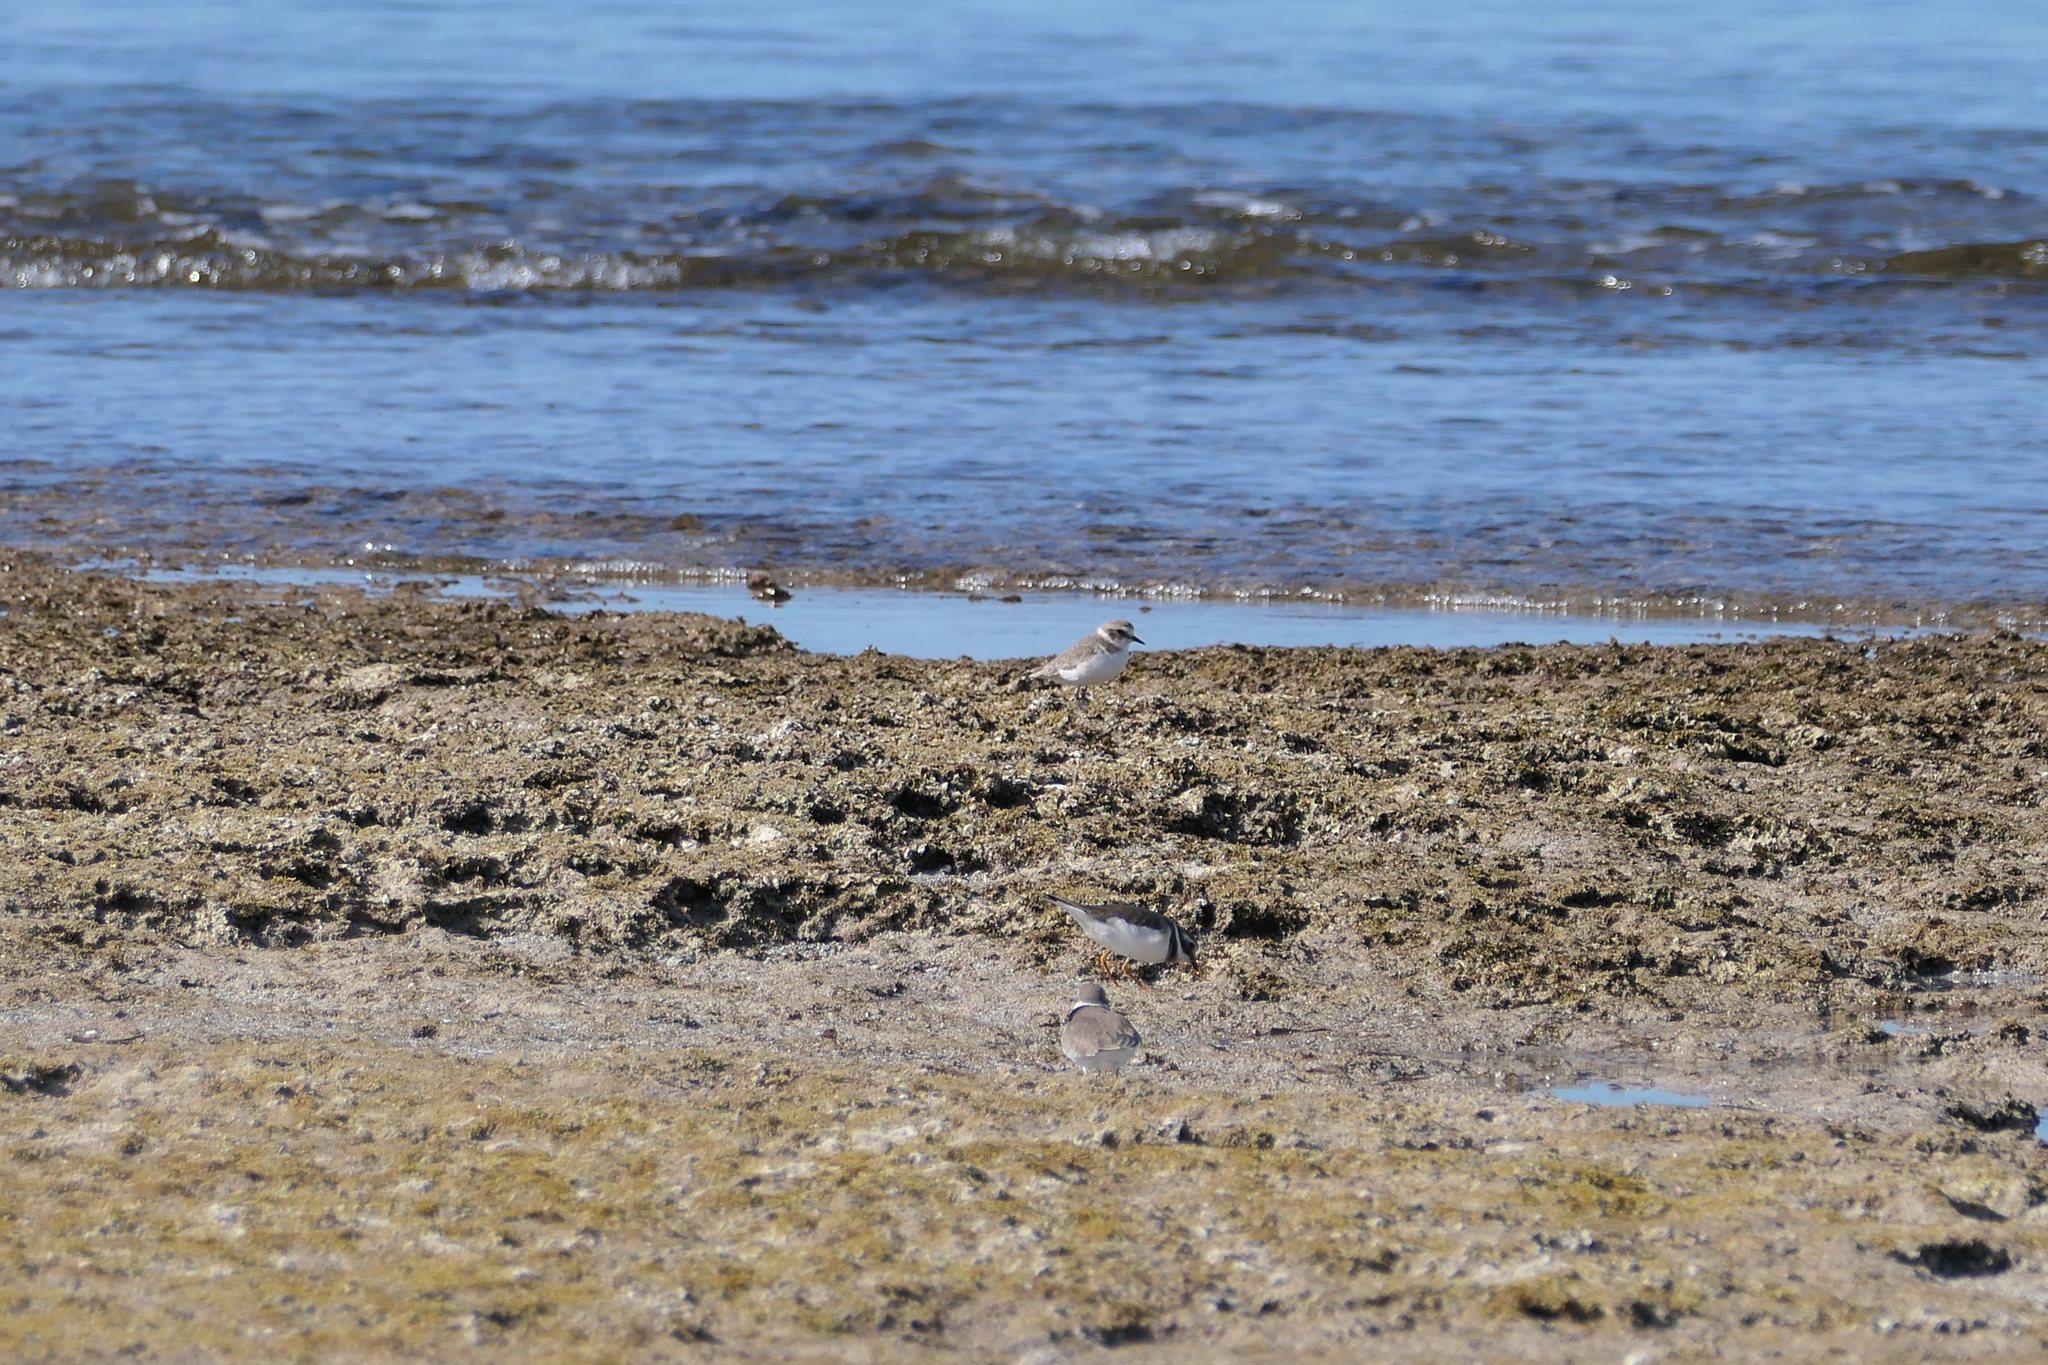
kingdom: Animalia
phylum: Chordata
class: Aves
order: Charadriiformes
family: Charadriidae
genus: Charadrius
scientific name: Charadrius hiaticula
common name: Common ringed plover
